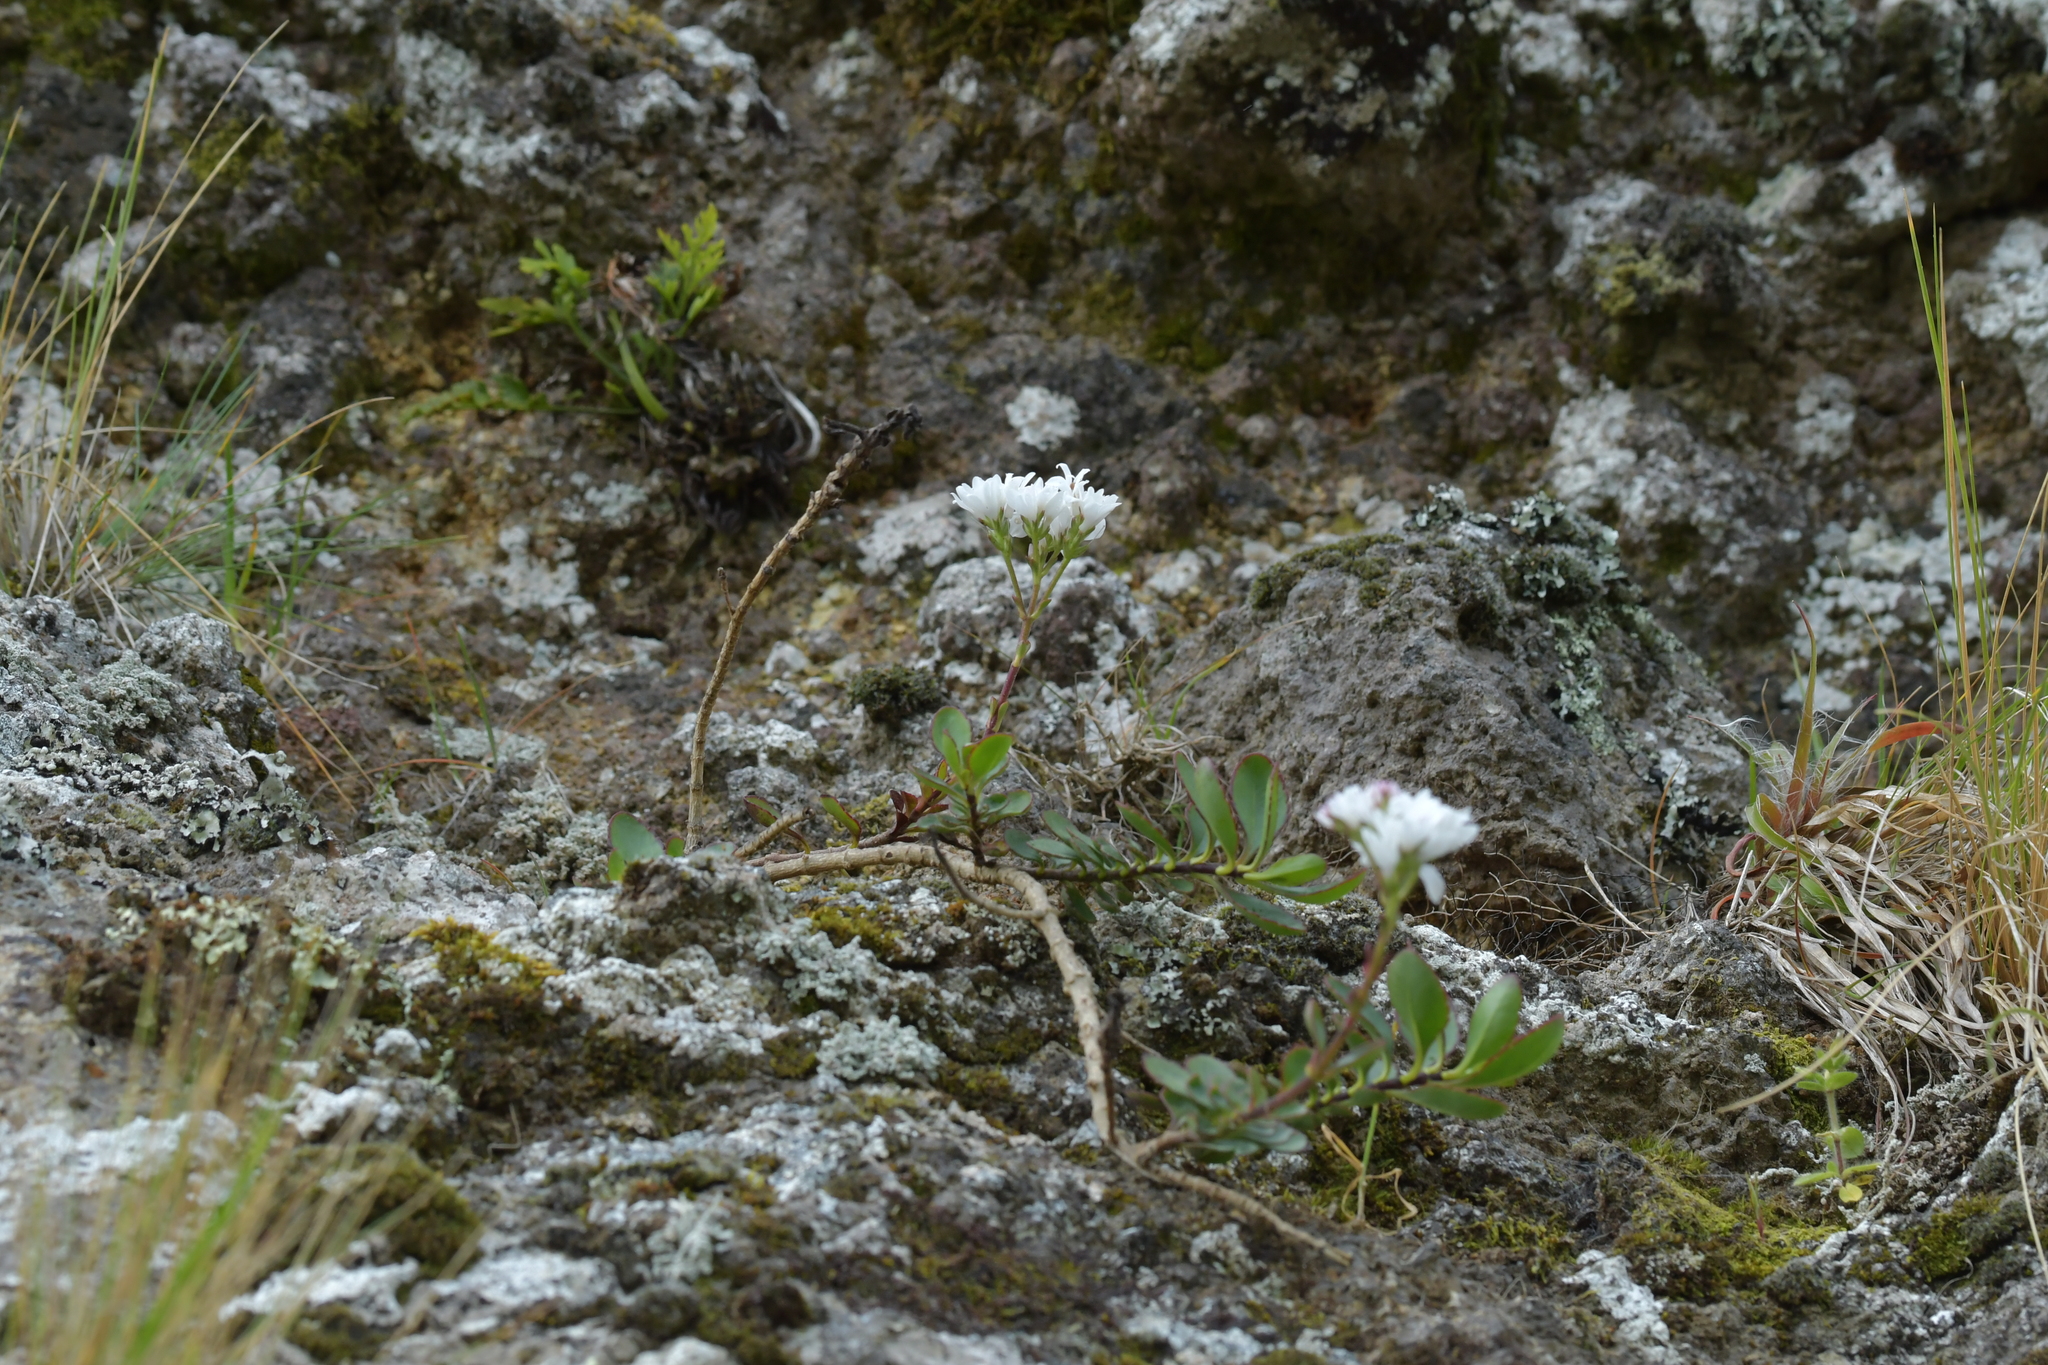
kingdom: Plantae
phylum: Tracheophyta
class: Magnoliopsida
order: Lamiales
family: Plantaginaceae
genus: Veronica
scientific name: Veronica lavaudiana
